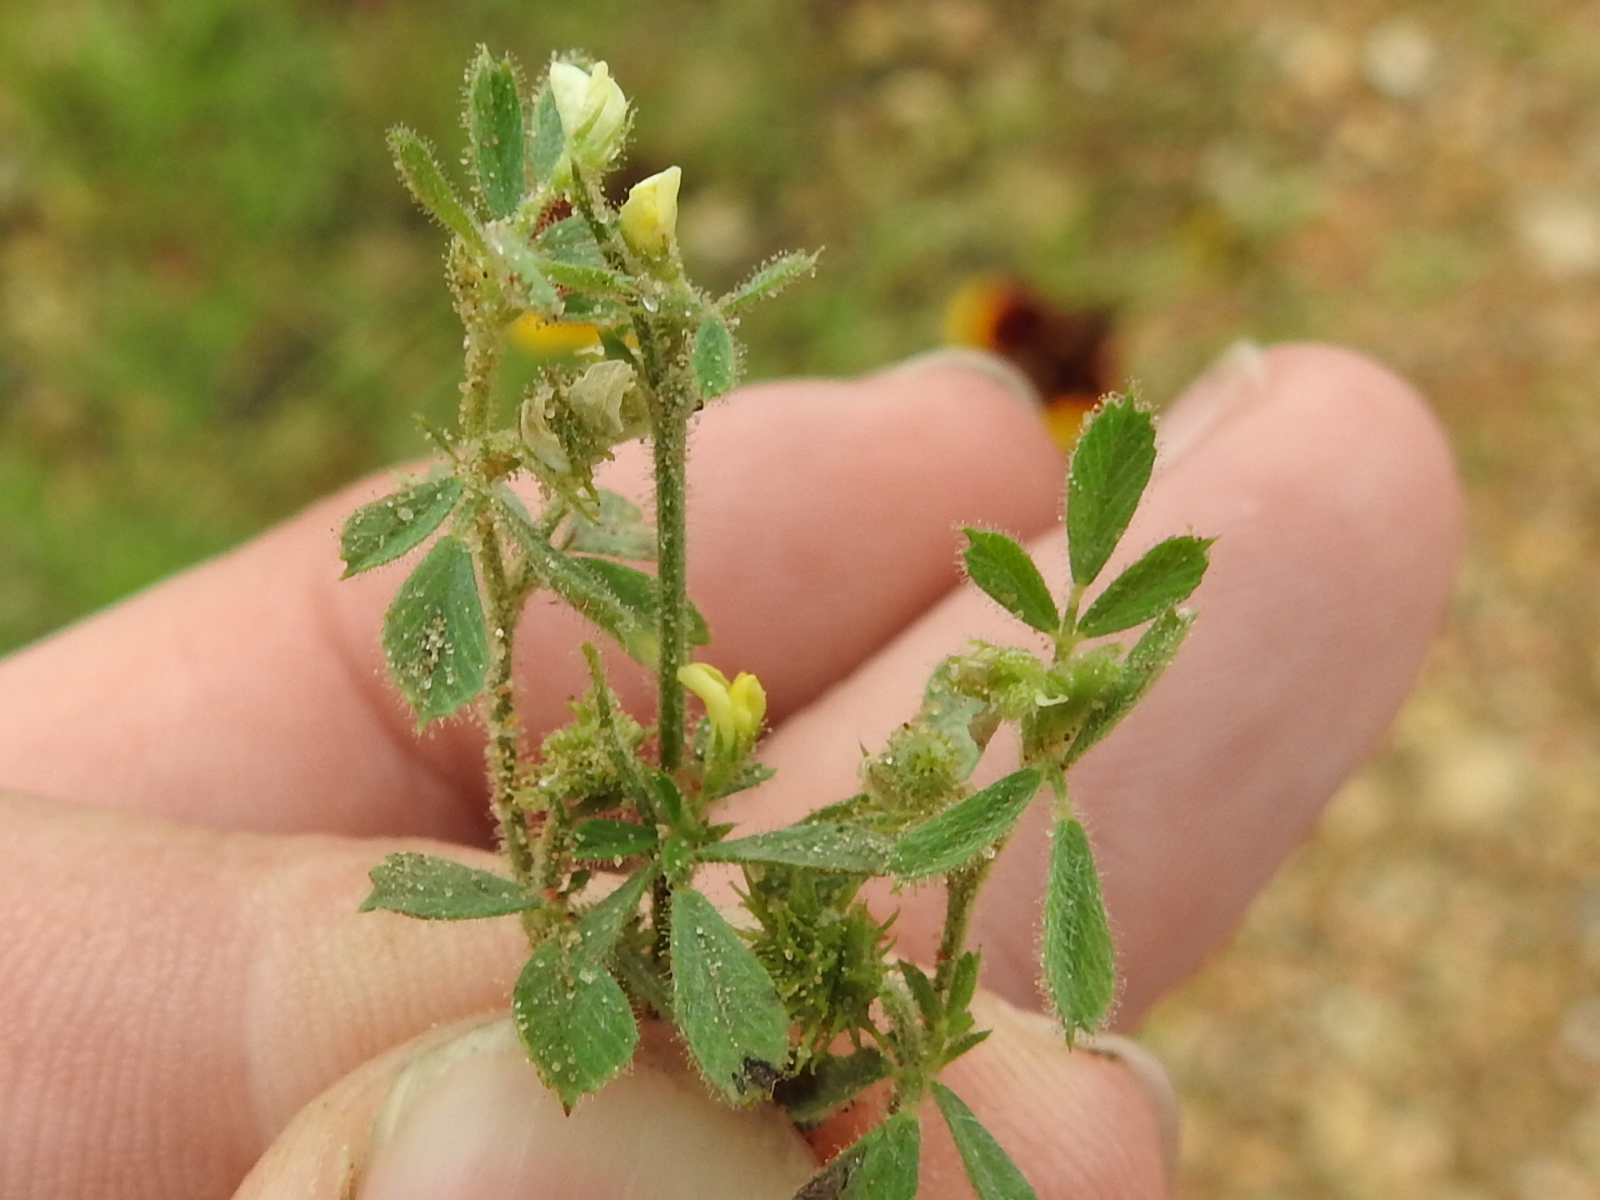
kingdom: Plantae
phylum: Tracheophyta
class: Magnoliopsida
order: Fabales
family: Fabaceae
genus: Medicago
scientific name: Medicago minima
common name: Little bur-clover
